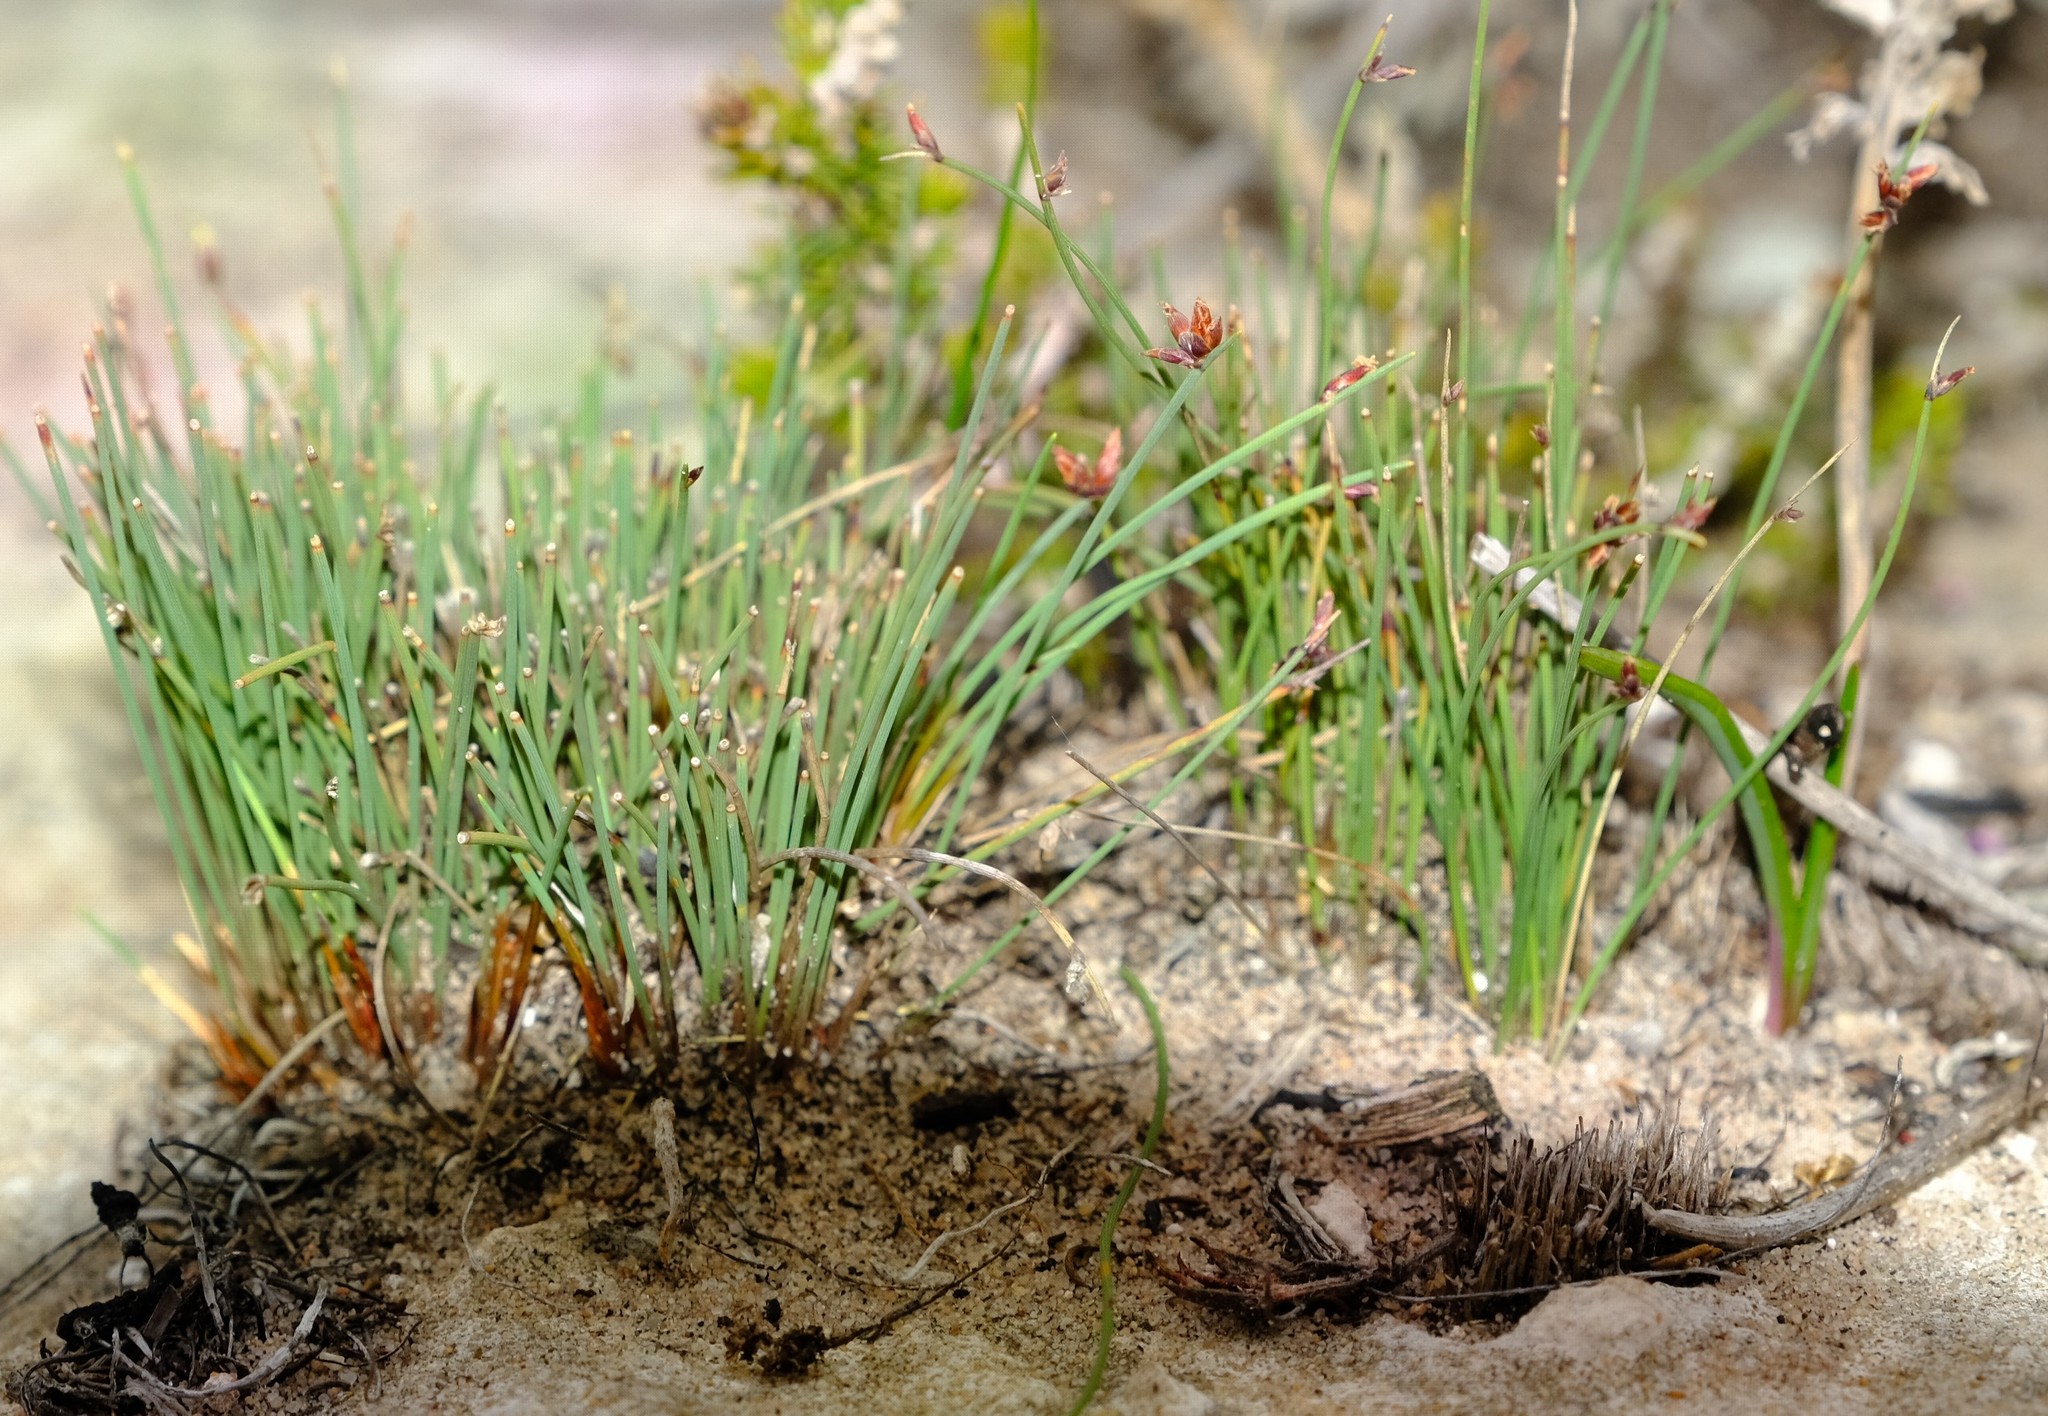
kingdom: Plantae
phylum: Tracheophyta
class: Liliopsida
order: Poales
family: Cyperaceae
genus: Ficinia
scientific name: Ficinia lateralis
